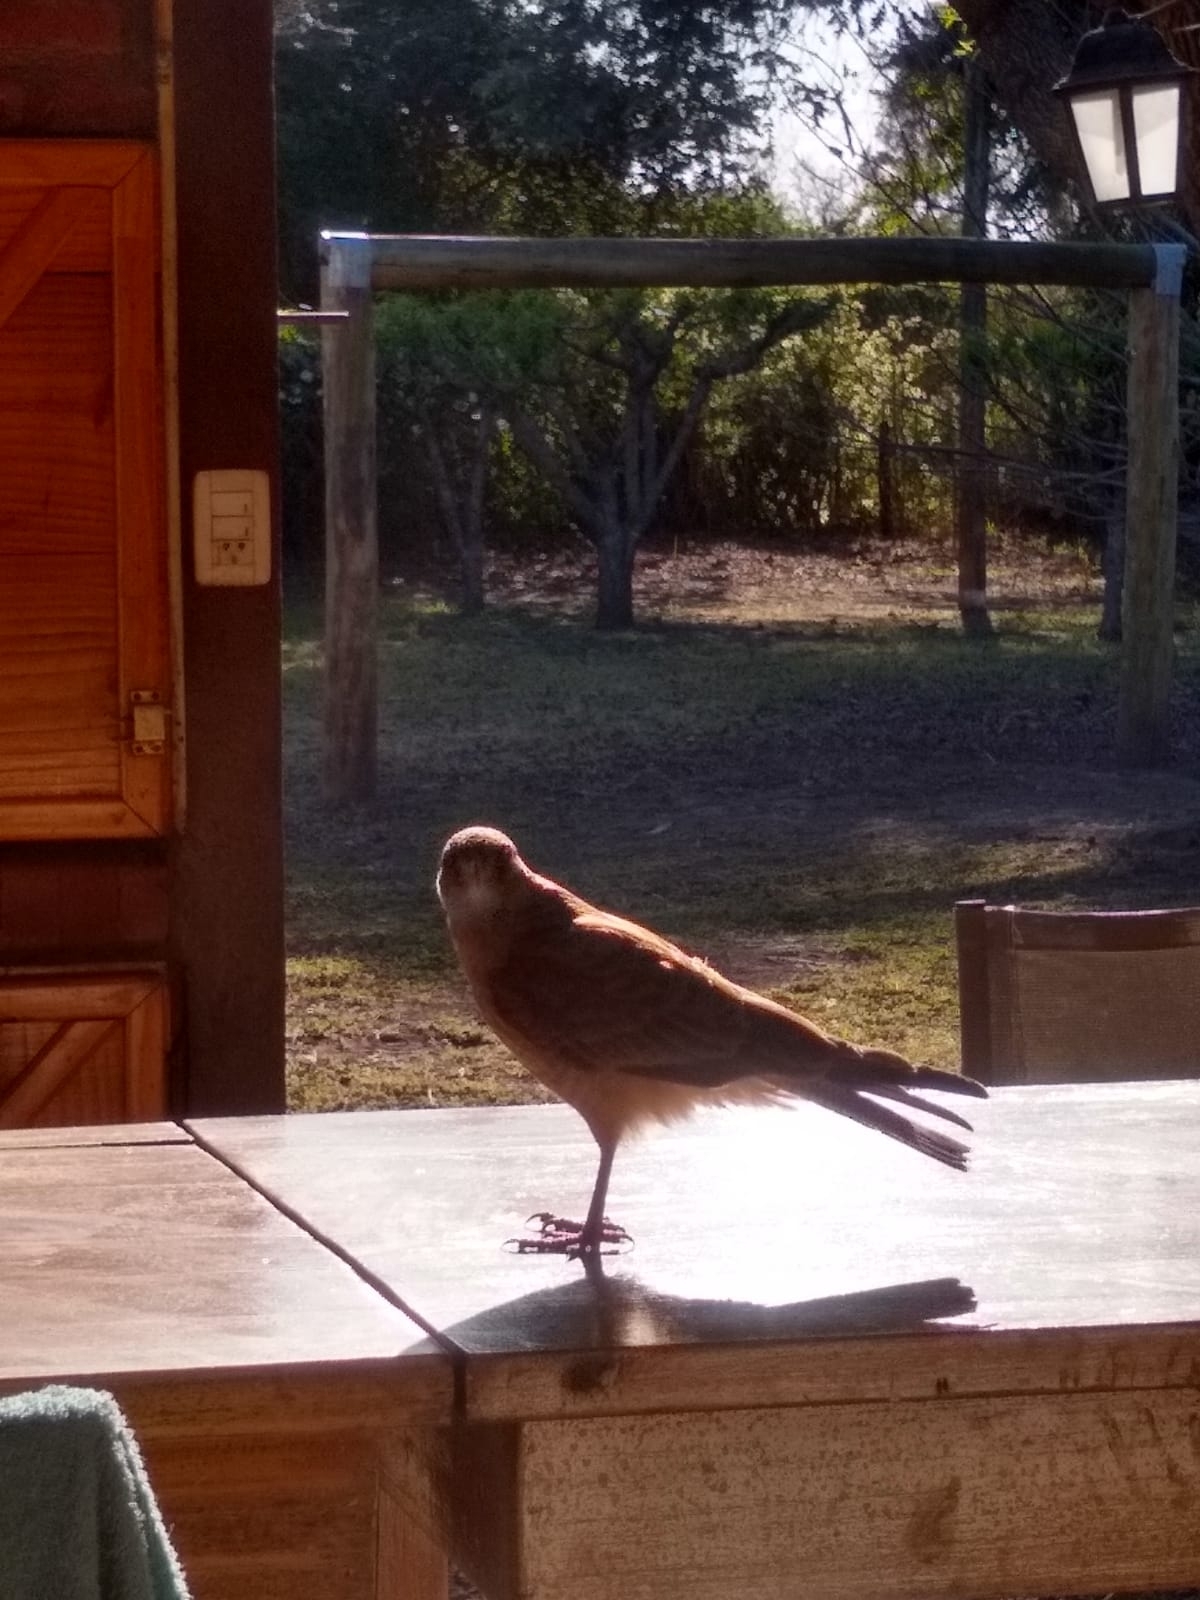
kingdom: Animalia
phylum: Chordata
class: Aves
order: Falconiformes
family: Falconidae
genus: Daptrius
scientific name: Daptrius
